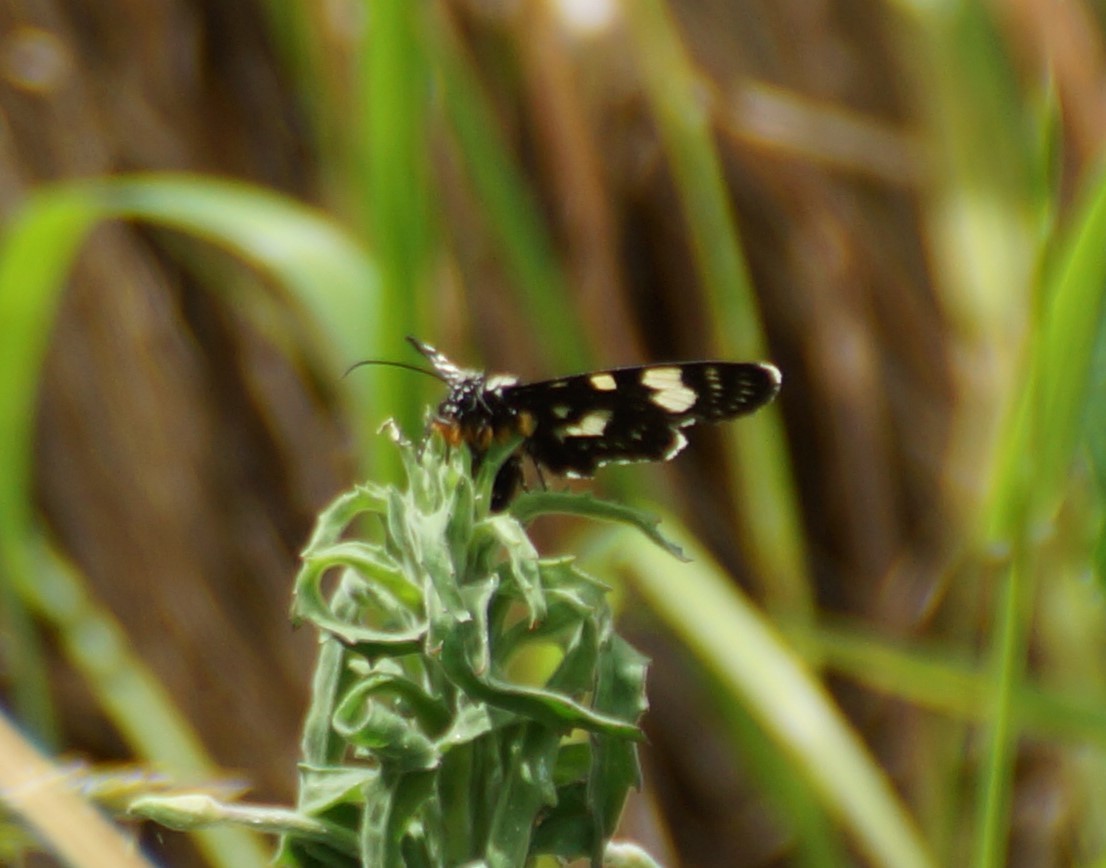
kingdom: Animalia
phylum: Arthropoda
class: Insecta
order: Lepidoptera
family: Noctuidae
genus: Phalaenoides
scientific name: Phalaenoides tristifica
